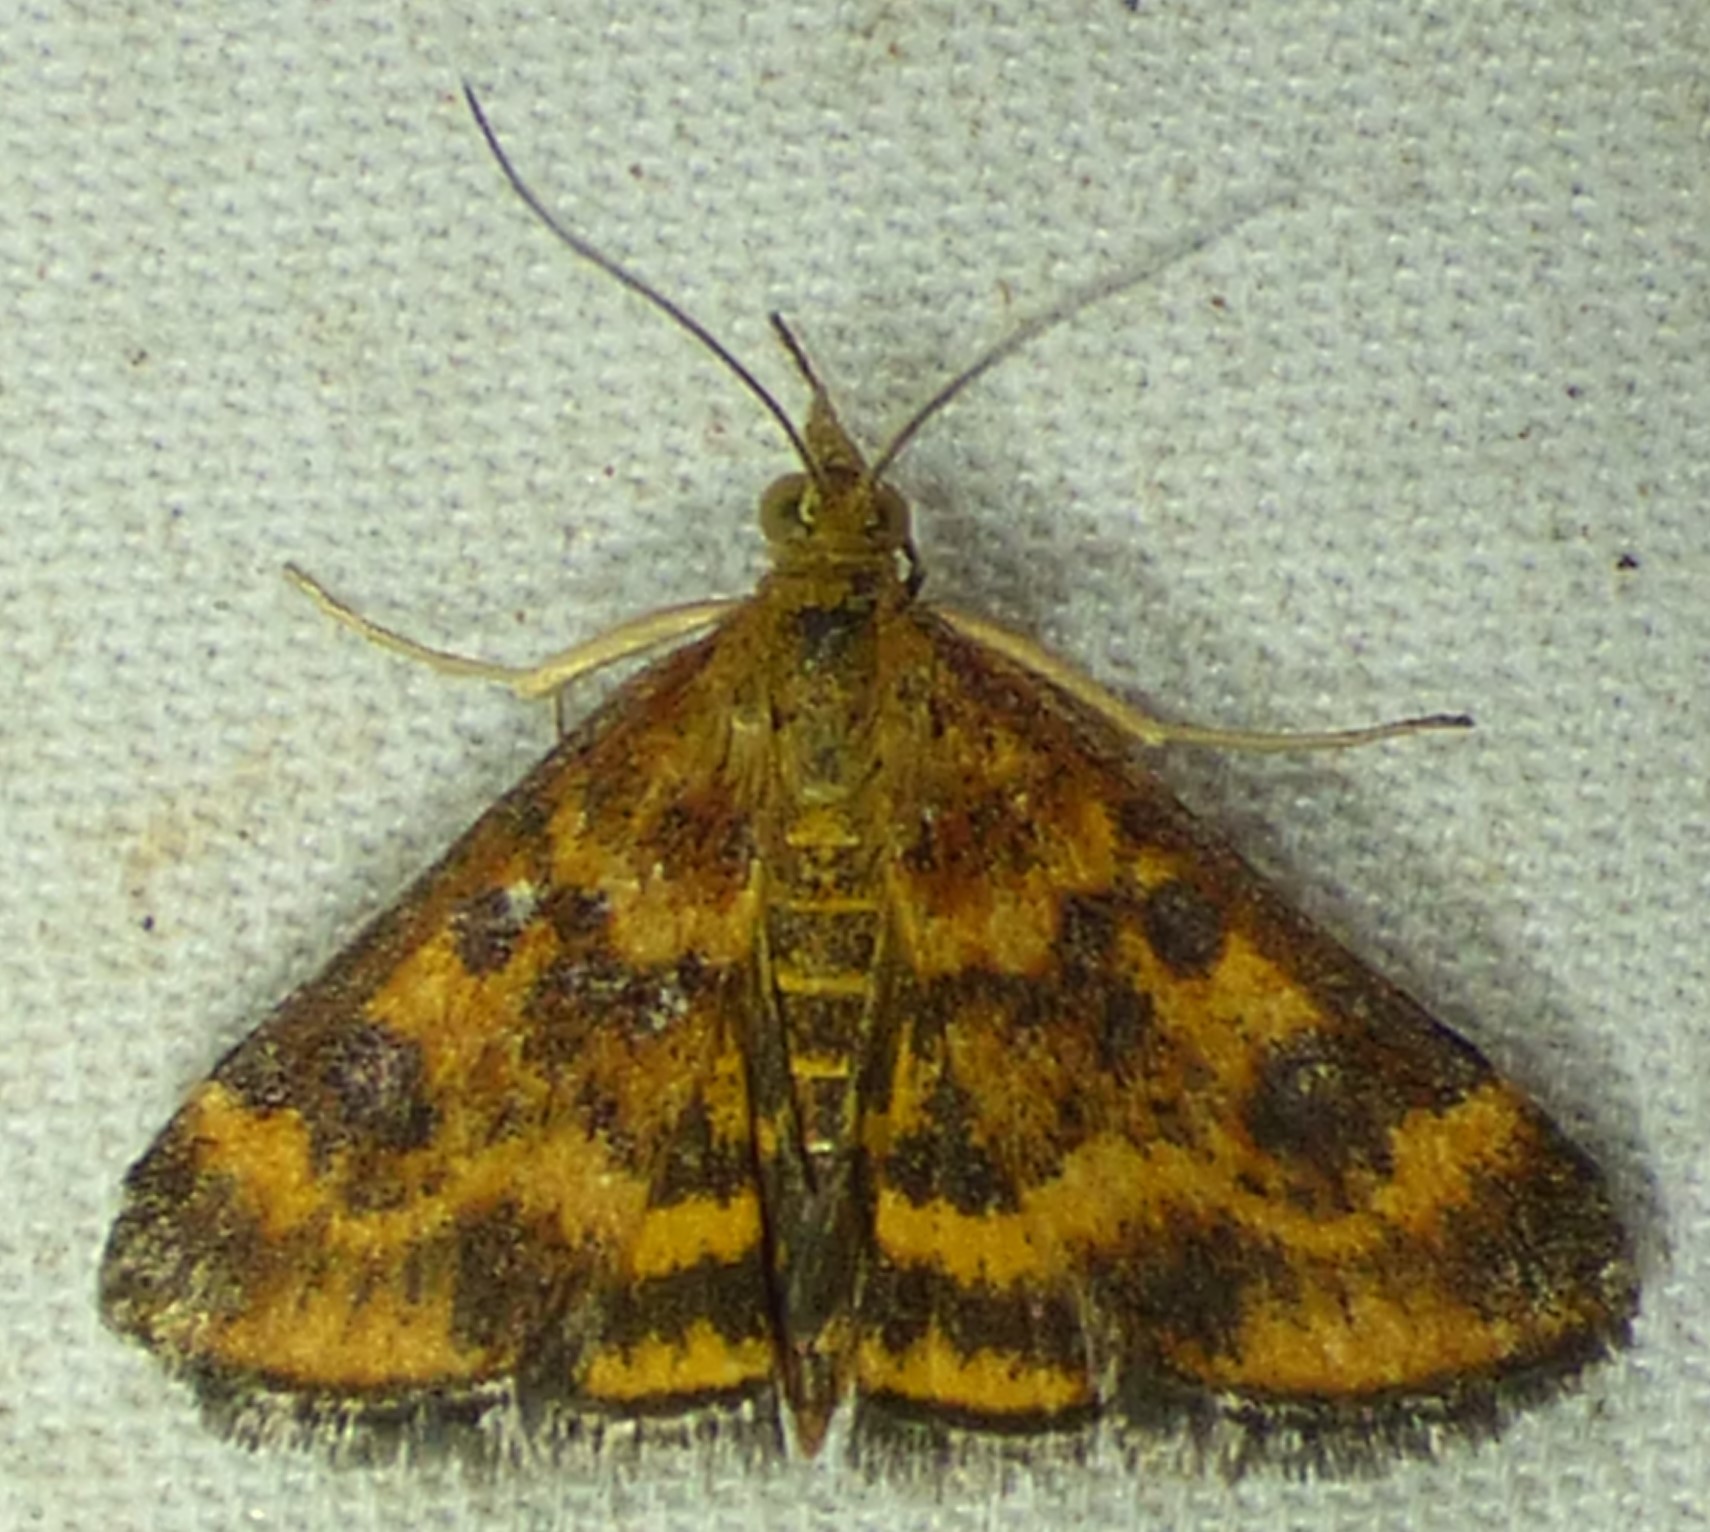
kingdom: Animalia
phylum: Arthropoda
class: Insecta
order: Lepidoptera
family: Crambidae
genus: Pyrausta
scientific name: Pyrausta subsequalis
